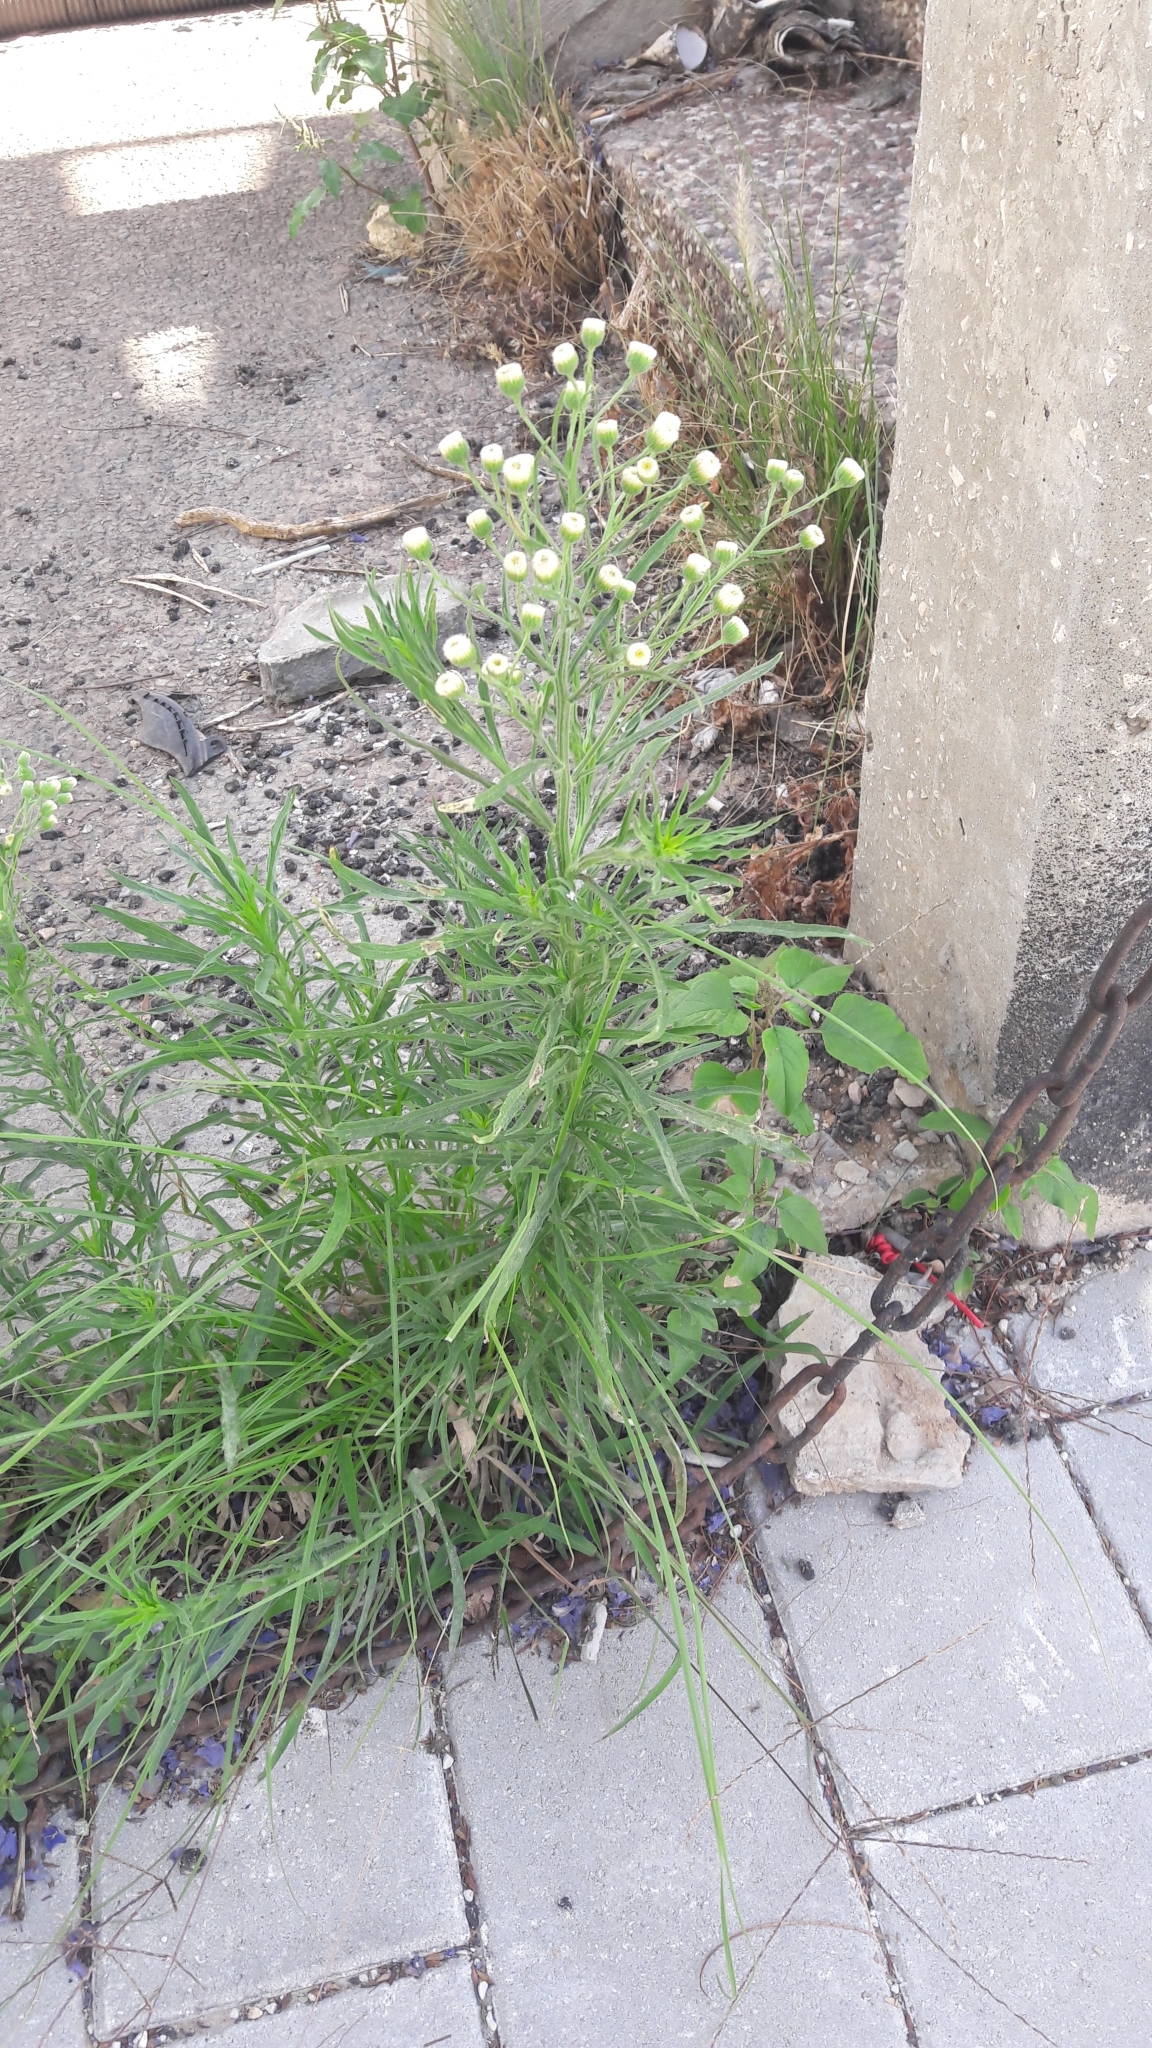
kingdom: Plantae
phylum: Tracheophyta
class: Magnoliopsida
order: Asterales
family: Asteraceae
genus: Erigeron
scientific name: Erigeron bonariensis
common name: Argentine fleabane
